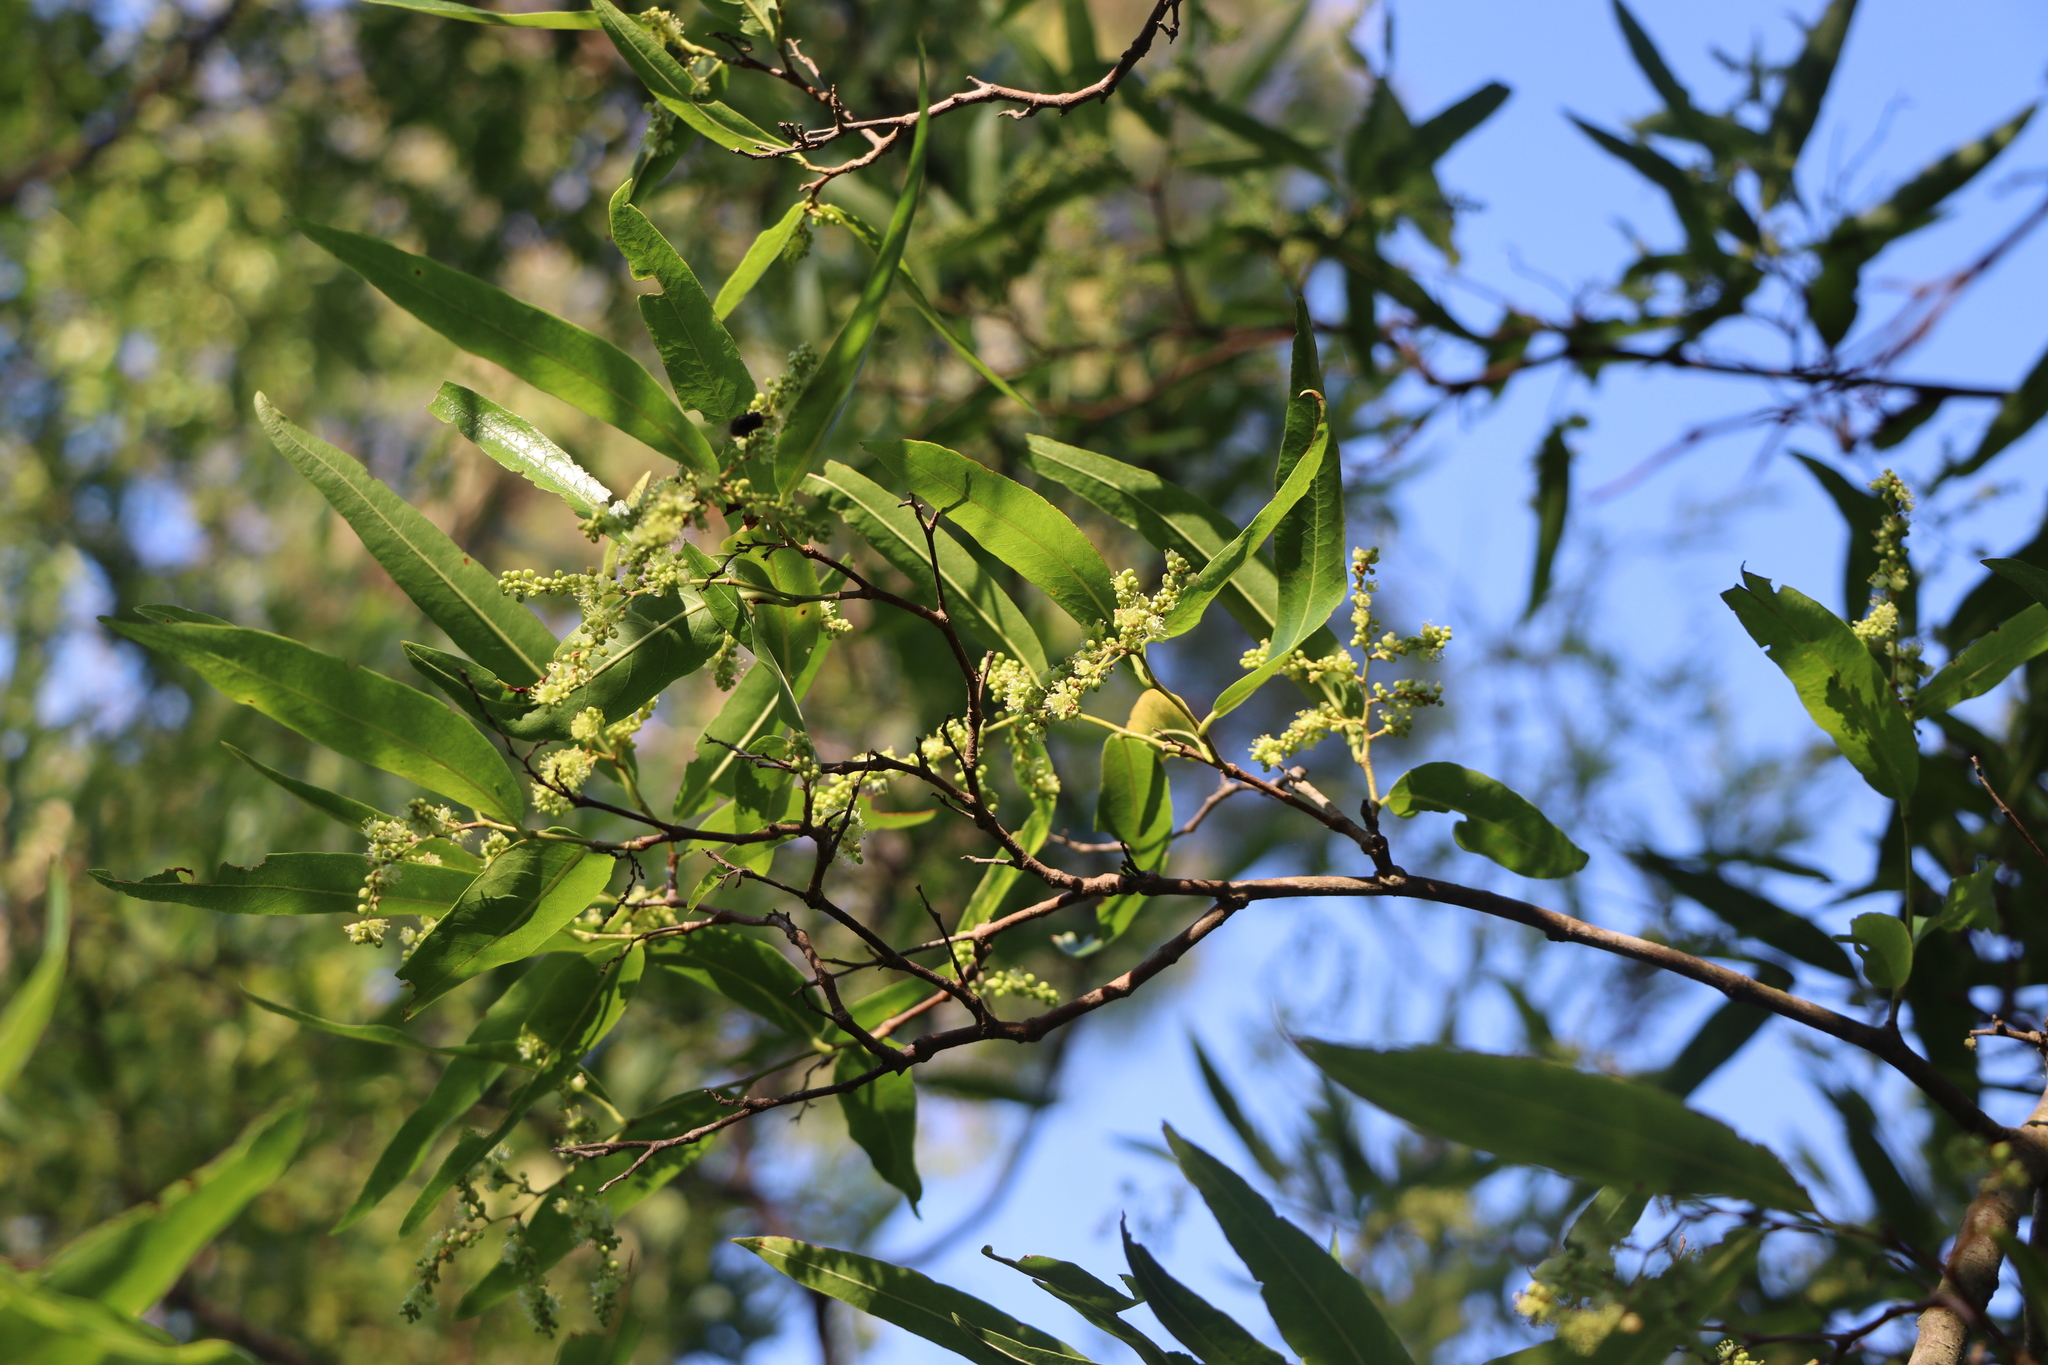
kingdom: Plantae
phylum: Tracheophyta
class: Magnoliopsida
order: Caryophyllales
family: Polygonaceae
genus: Ruprechtia
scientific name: Ruprechtia salicifolia
